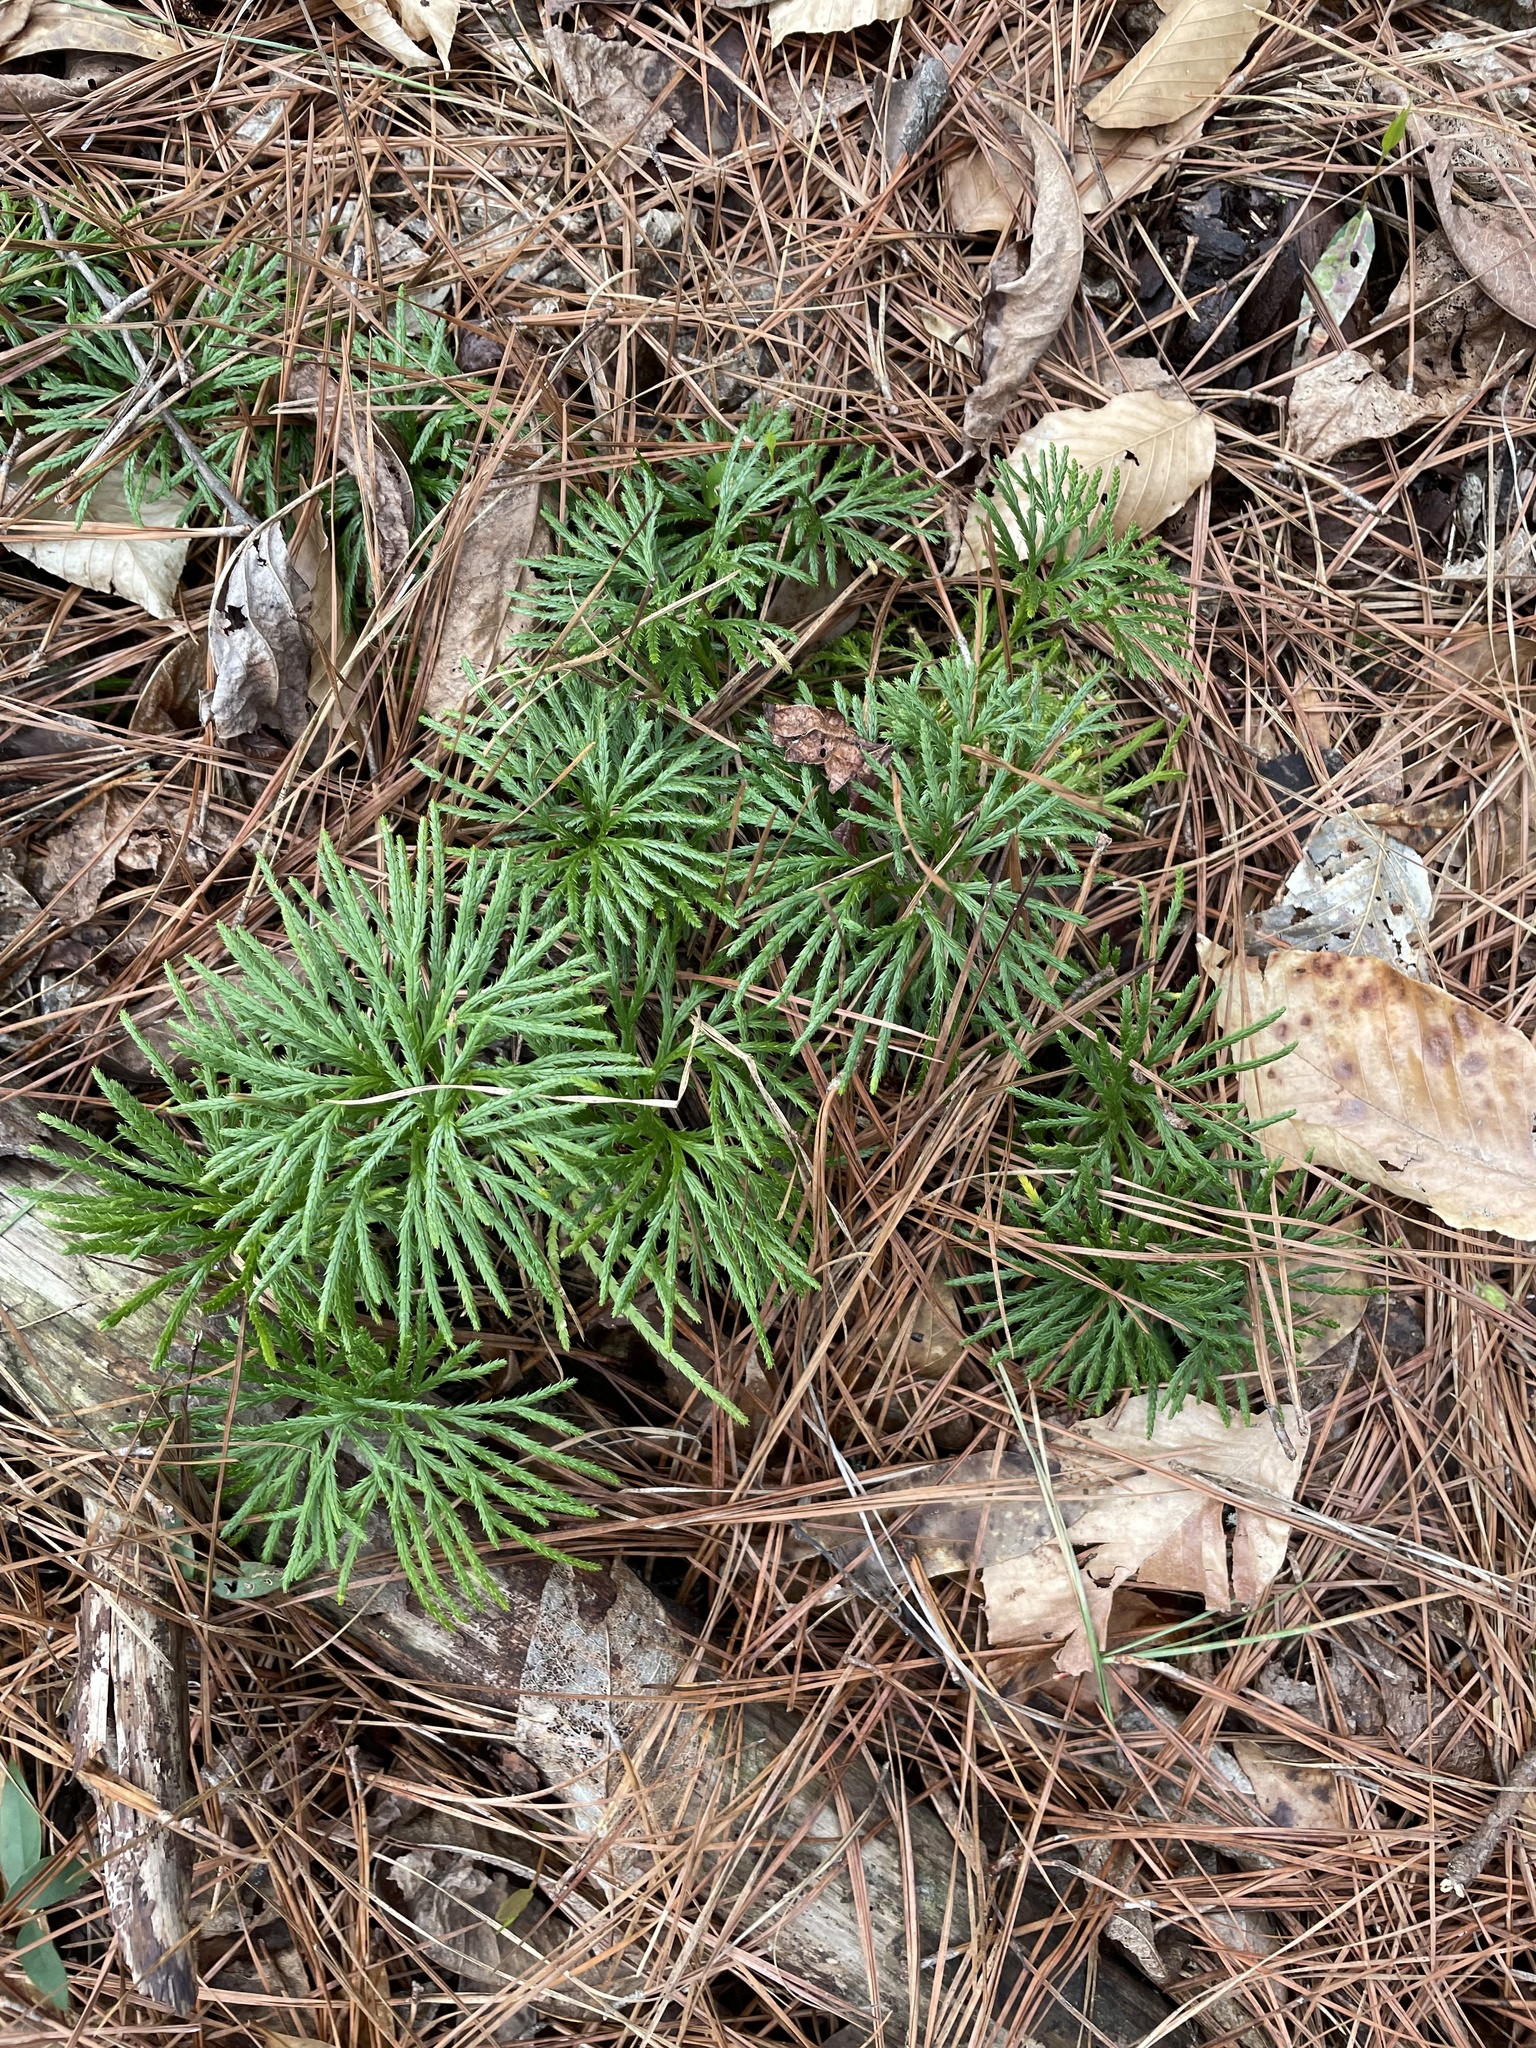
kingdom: Plantae
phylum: Tracheophyta
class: Lycopodiopsida
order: Lycopodiales
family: Lycopodiaceae
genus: Diphasiastrum
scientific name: Diphasiastrum digitatum
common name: Southern running-pine
